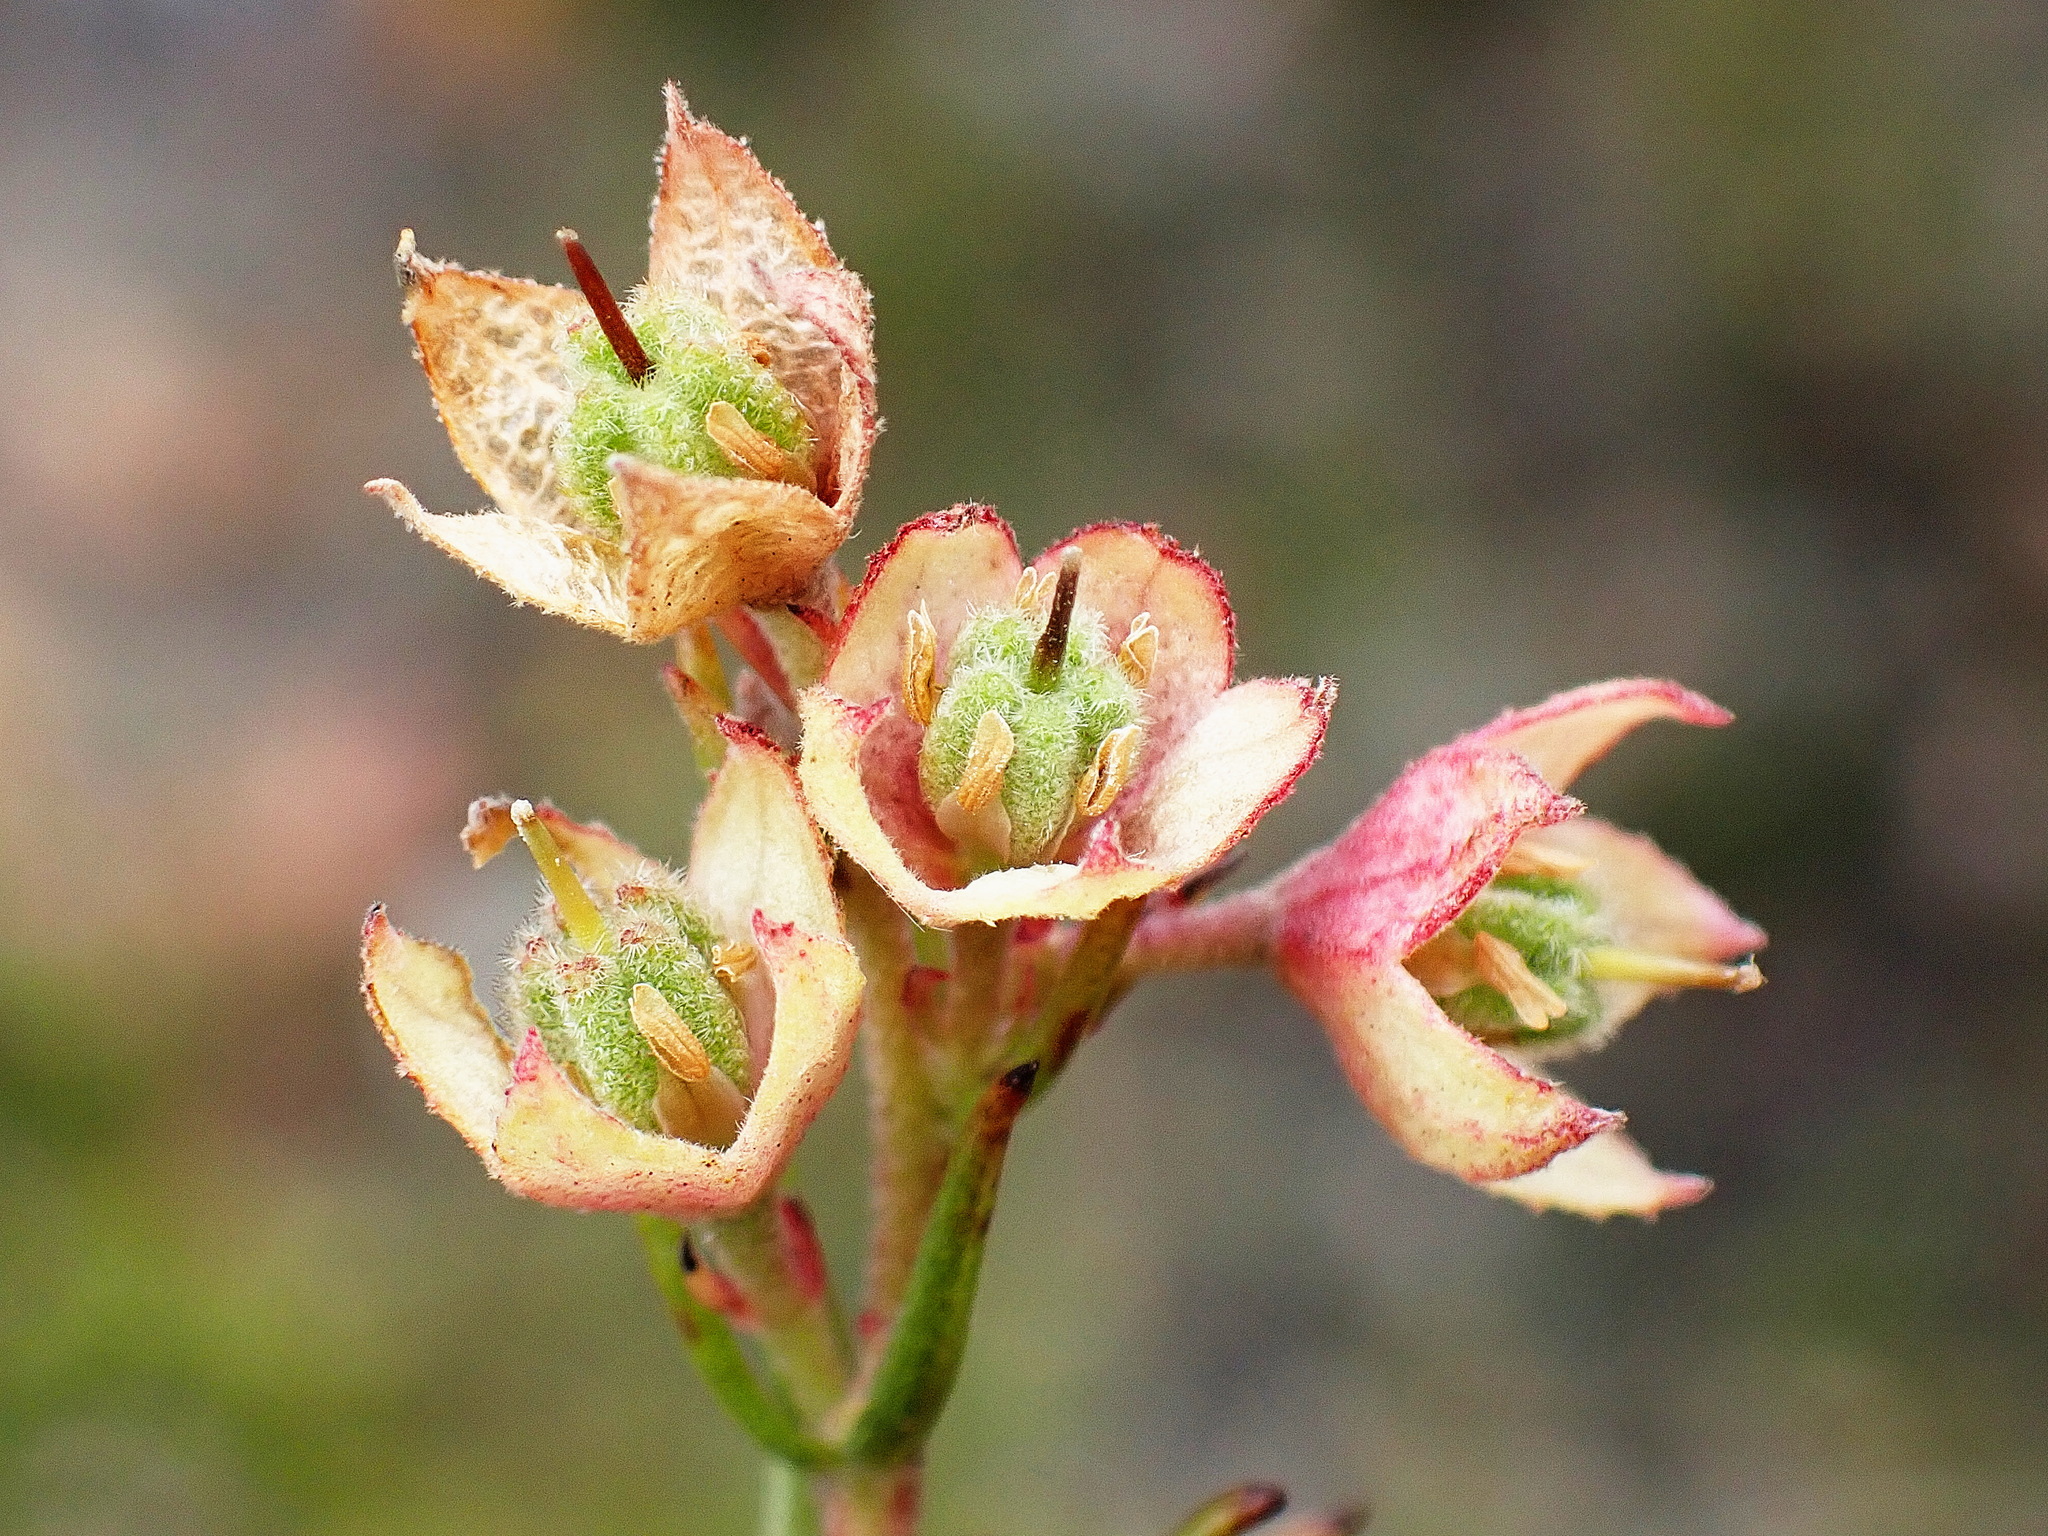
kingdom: Plantae
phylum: Tracheophyta
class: Magnoliopsida
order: Malvales
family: Malvaceae
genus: Hermannia
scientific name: Hermannia filifolia
